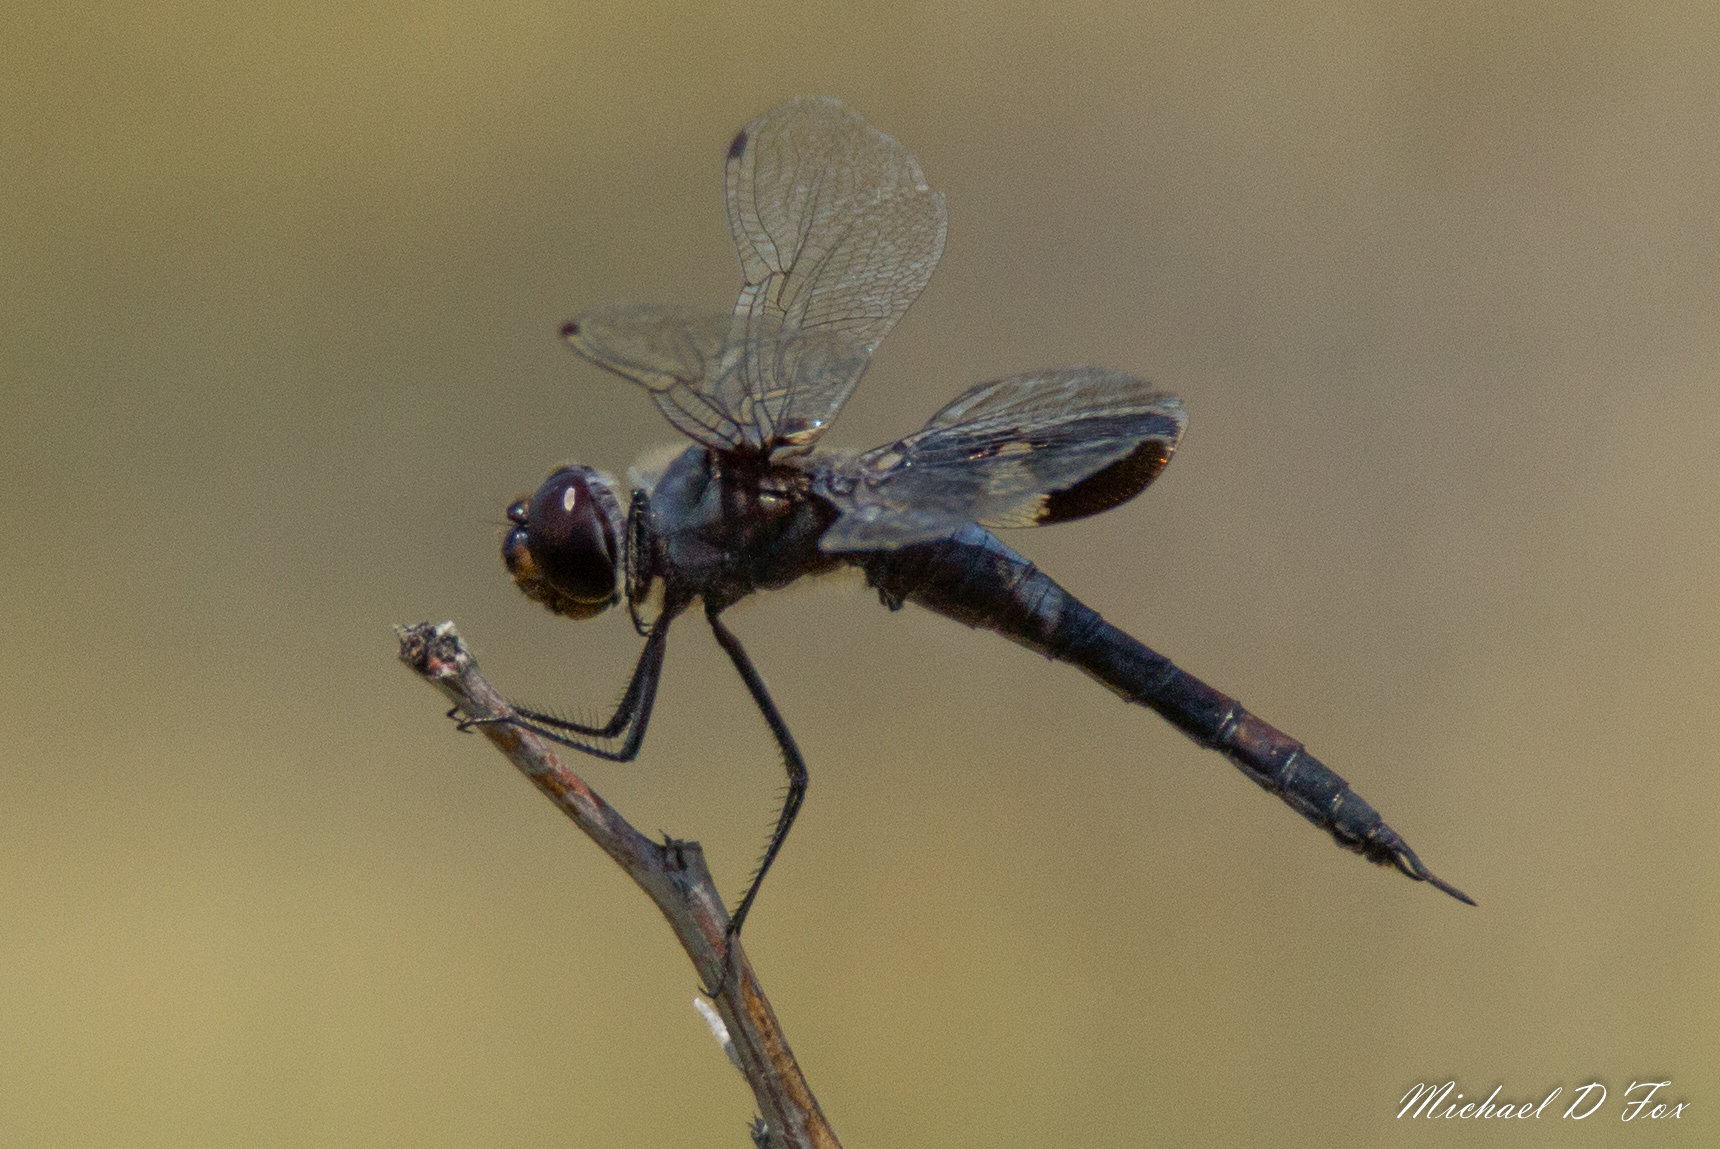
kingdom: Animalia
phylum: Arthropoda
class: Insecta
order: Odonata
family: Libellulidae
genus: Tramea
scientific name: Tramea lacerata
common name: Black saddlebags
